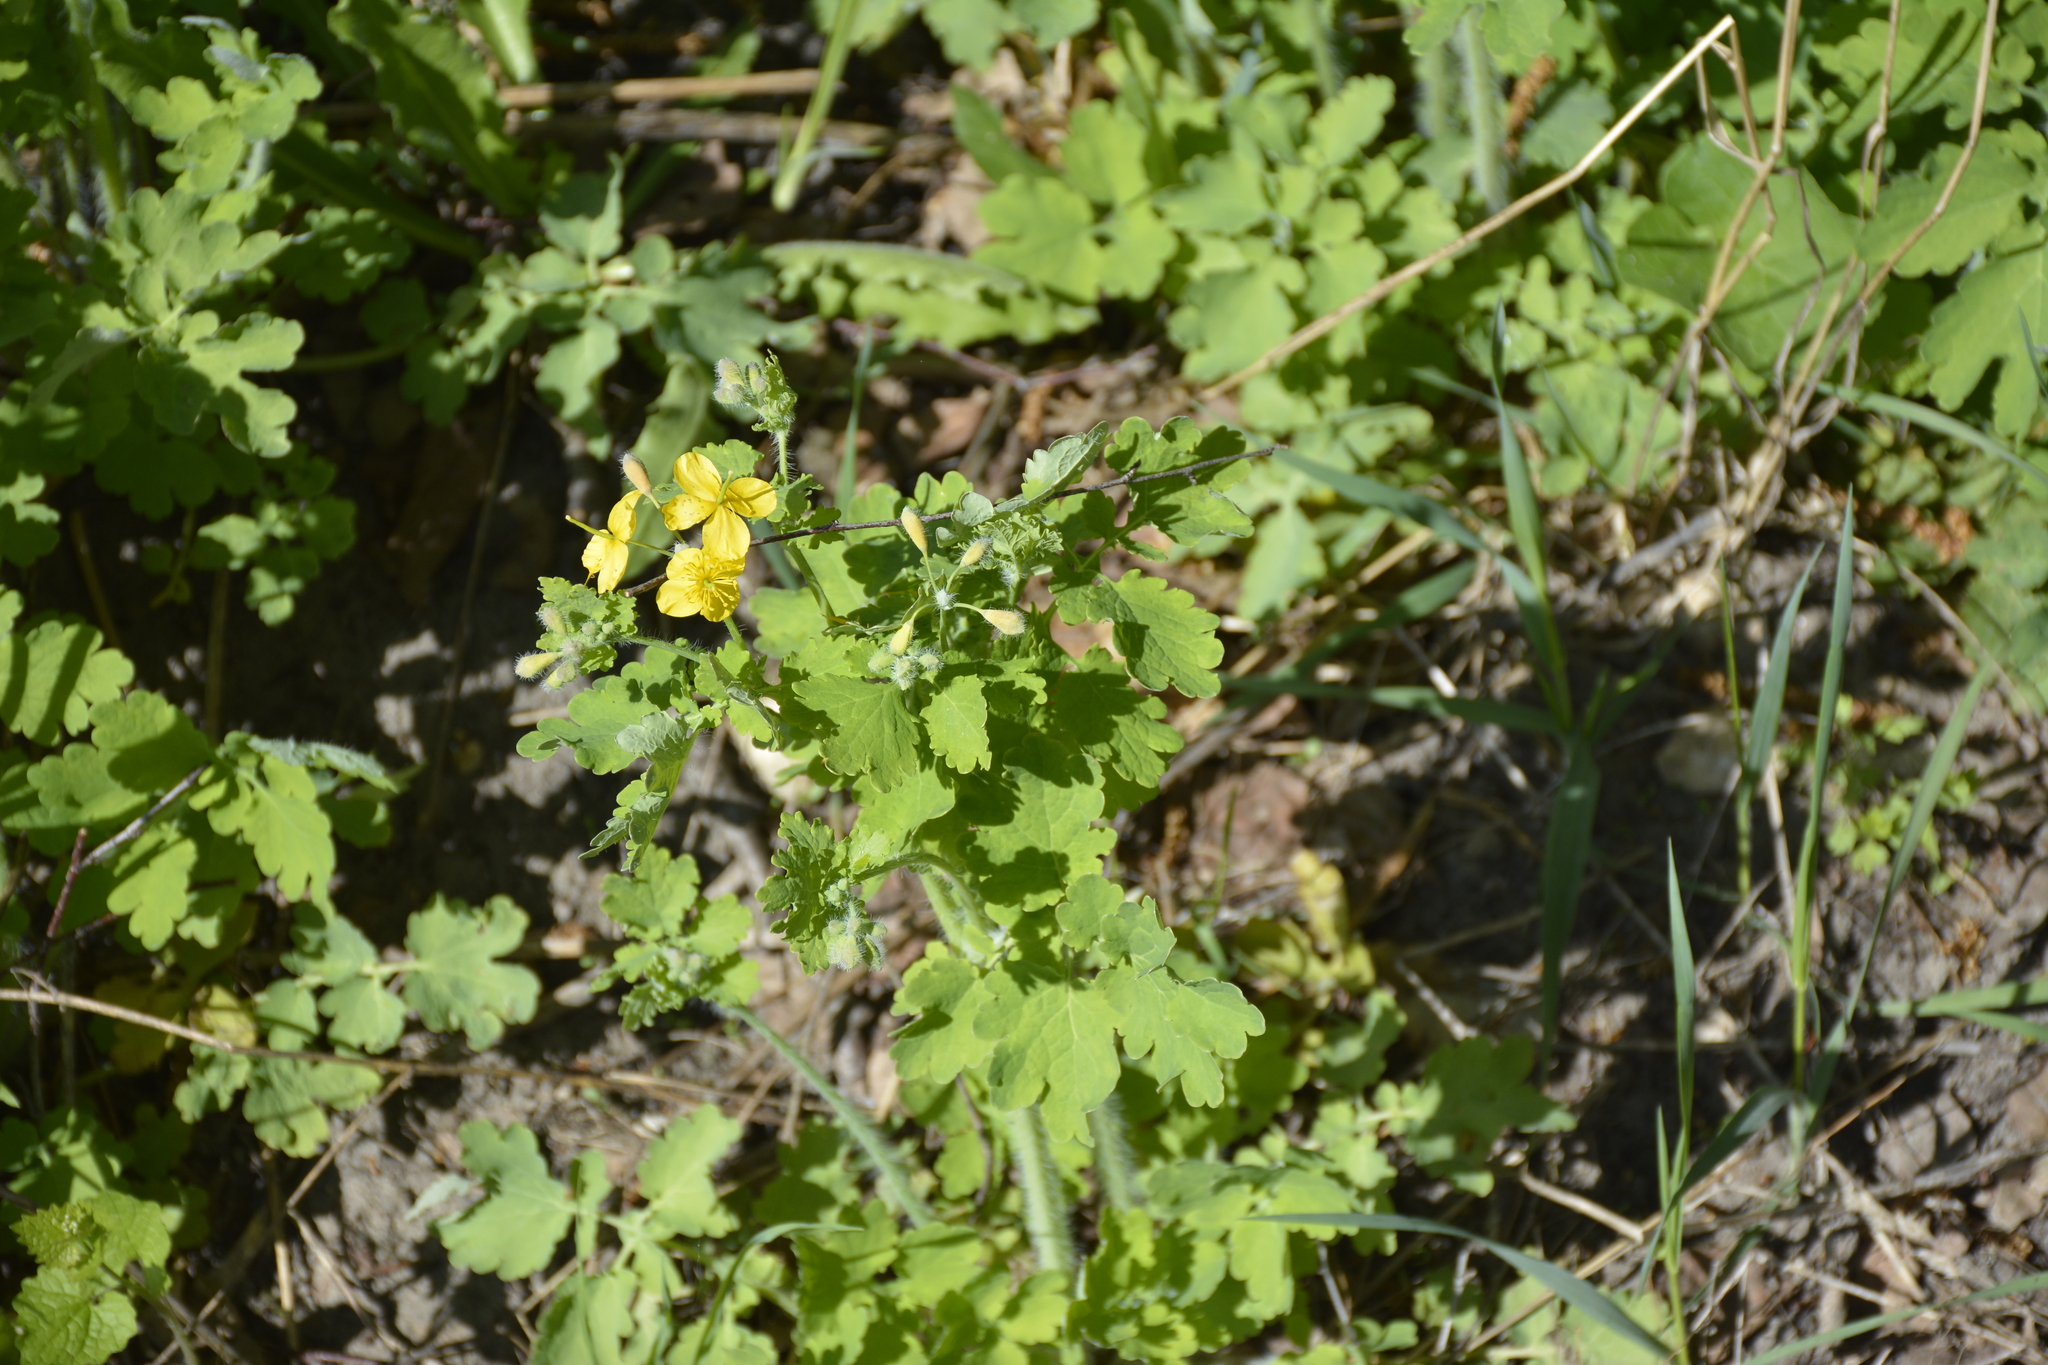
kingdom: Plantae
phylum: Tracheophyta
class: Magnoliopsida
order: Ranunculales
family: Papaveraceae
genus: Chelidonium
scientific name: Chelidonium majus
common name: Greater celandine
